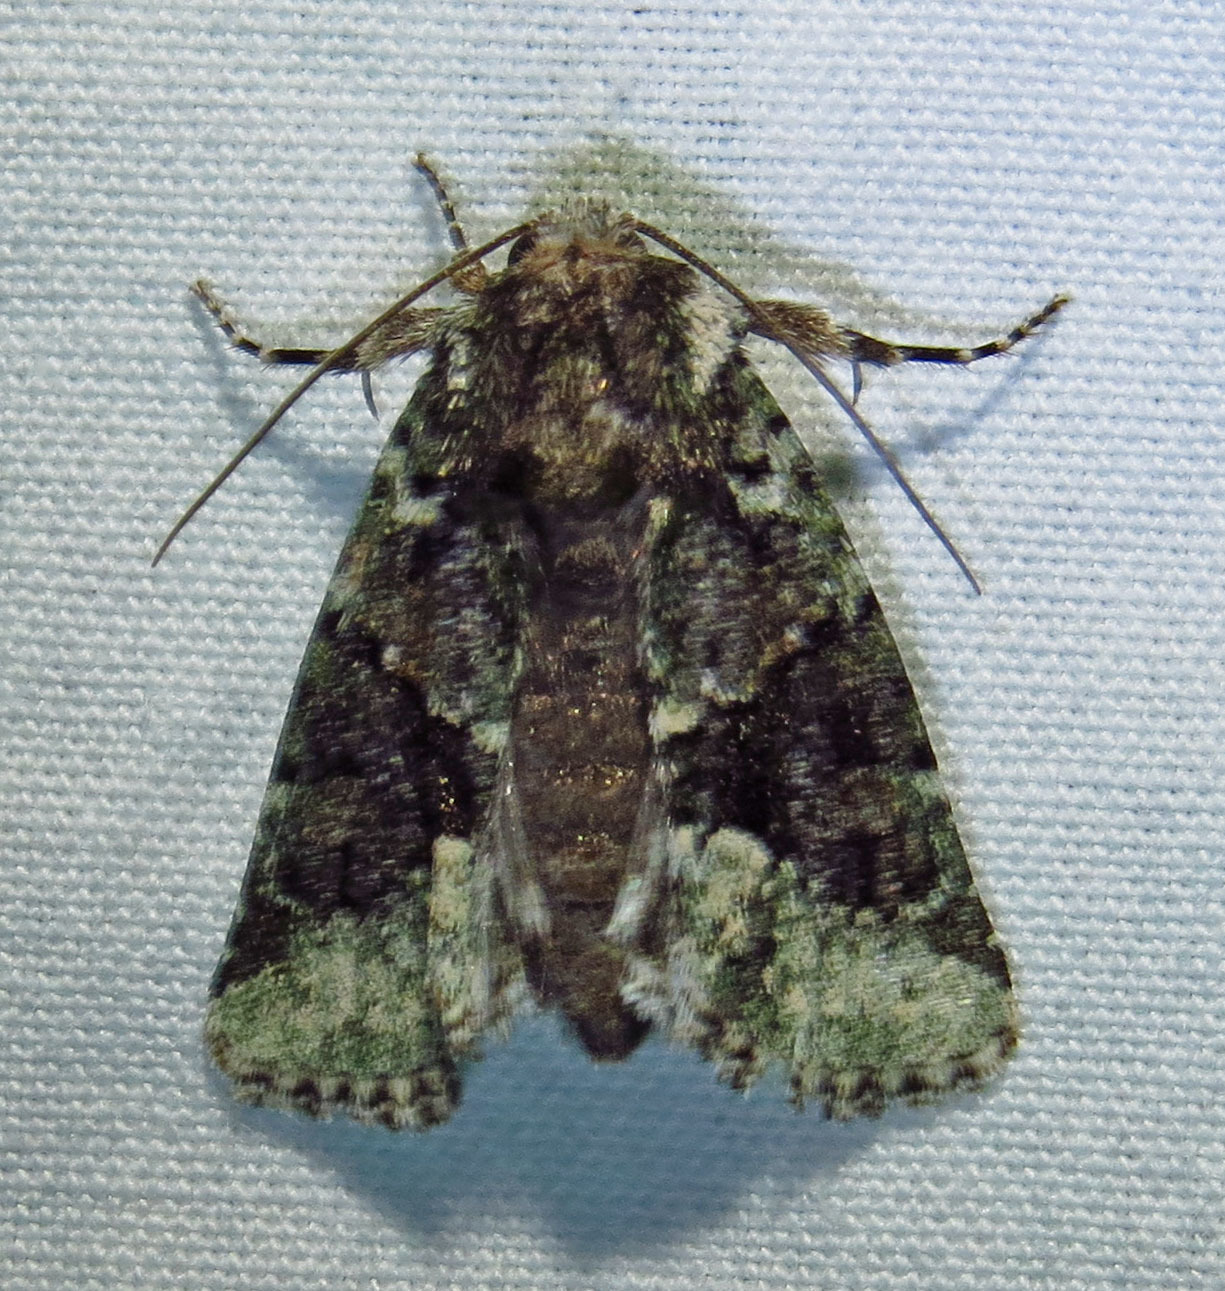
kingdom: Animalia
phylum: Arthropoda
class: Insecta
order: Lepidoptera
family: Noctuidae
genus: Lacinipolia
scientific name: Lacinipolia explicata
